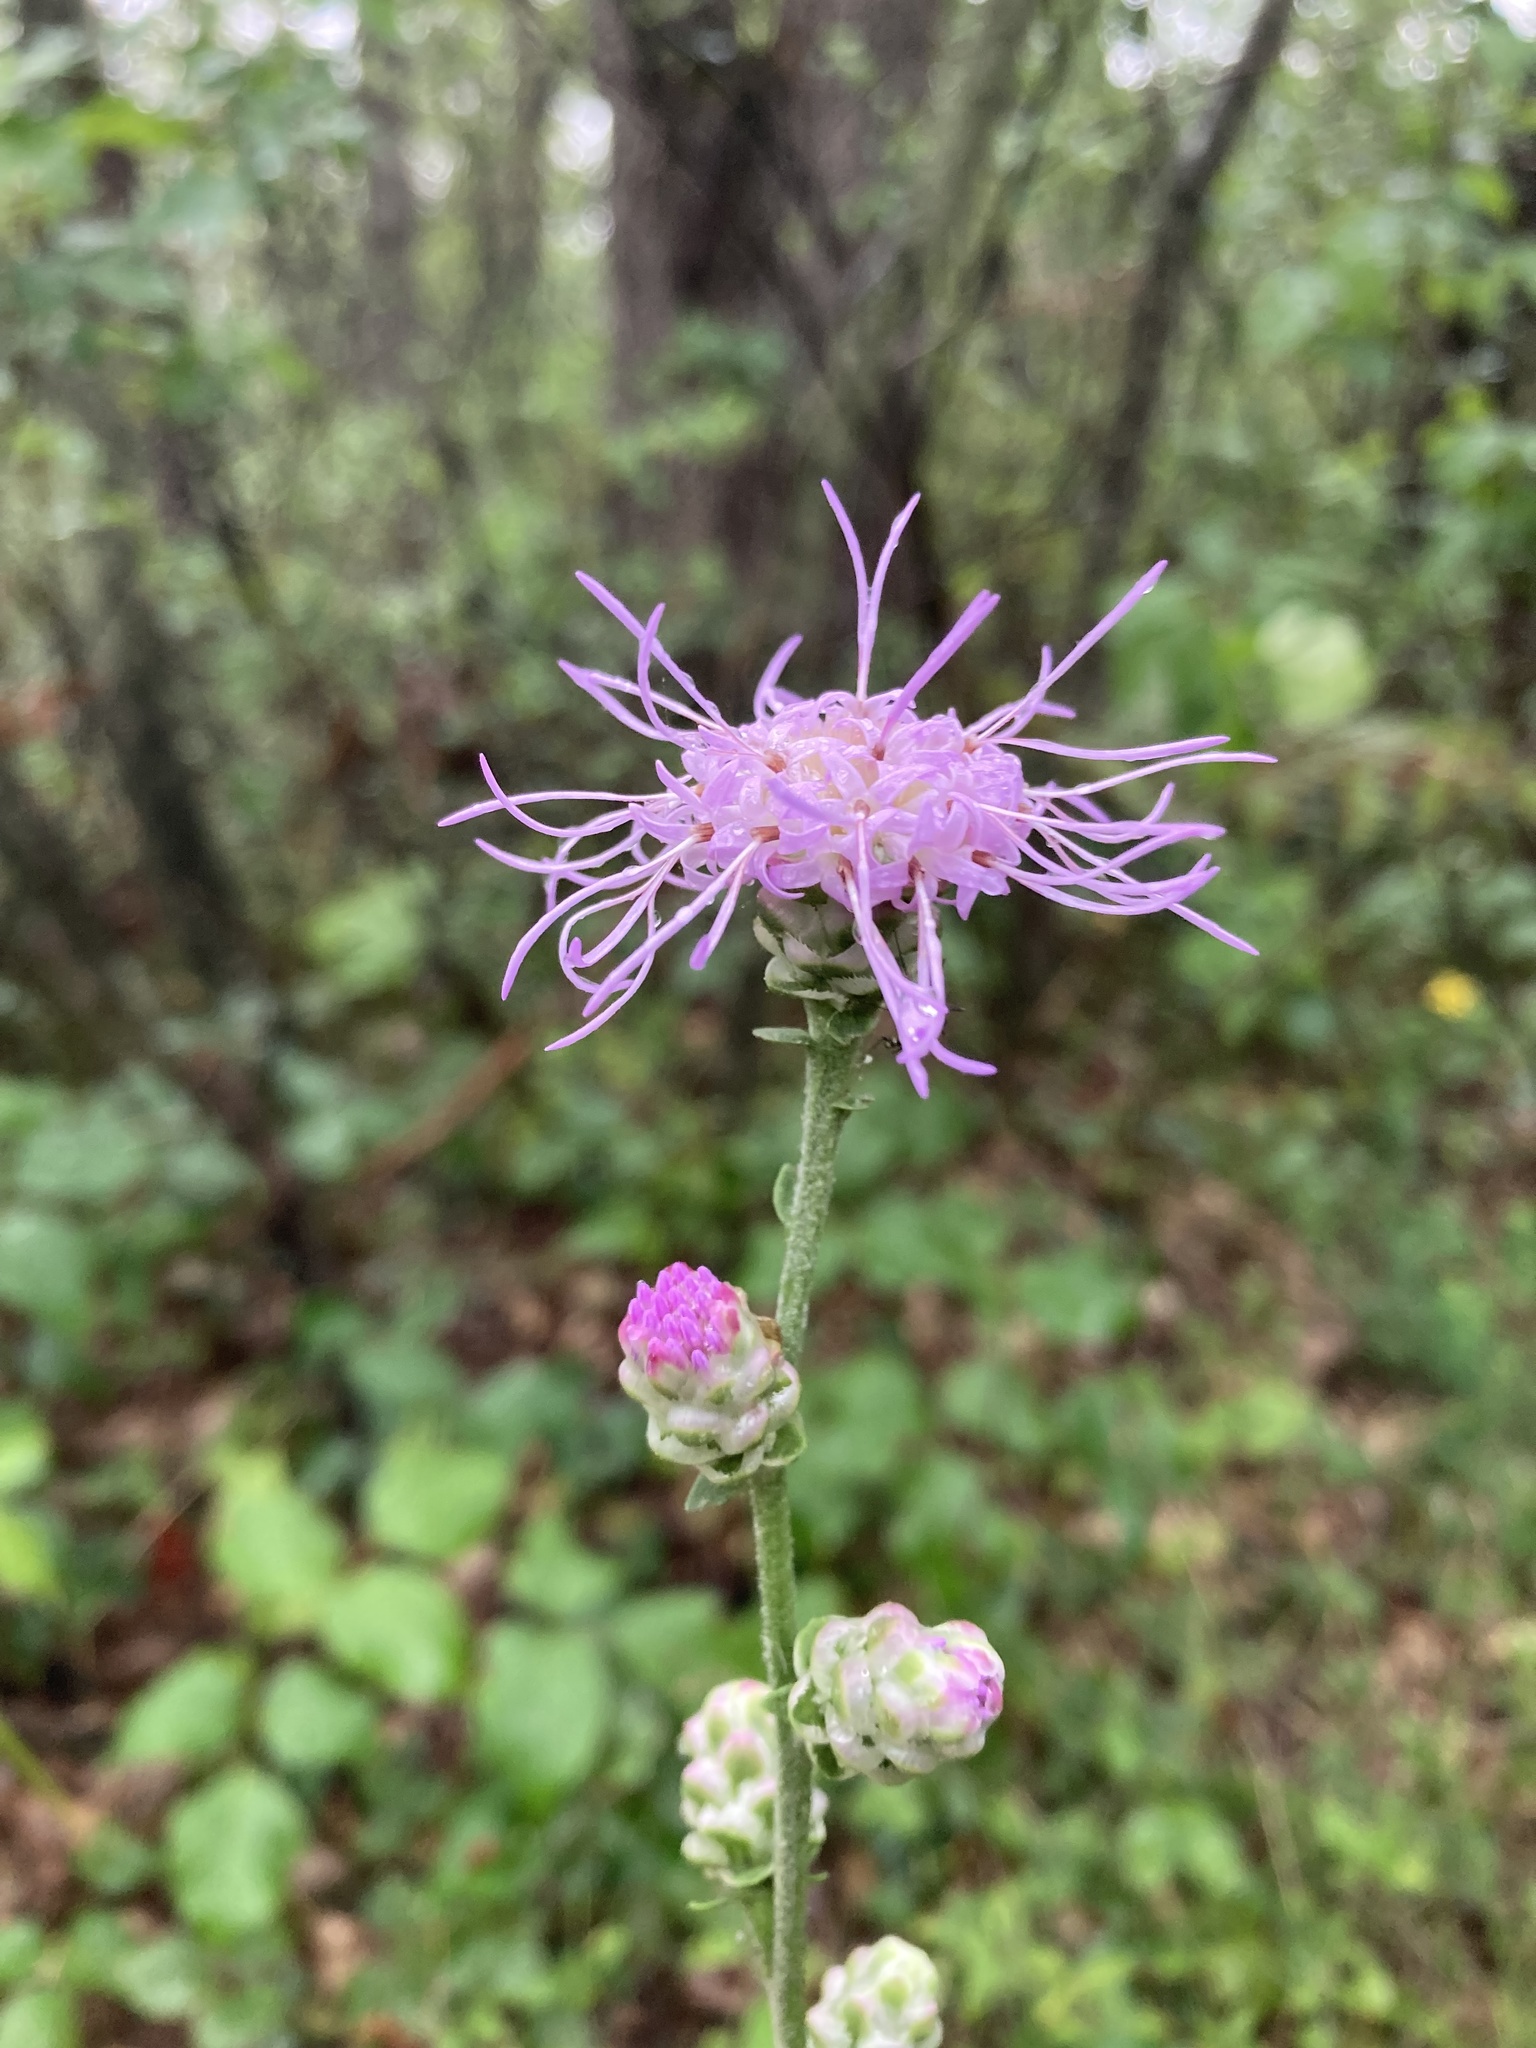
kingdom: Plantae
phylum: Tracheophyta
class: Magnoliopsida
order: Asterales
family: Asteraceae
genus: Liatris
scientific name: Liatris aspera
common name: Lacerate blazing-star
